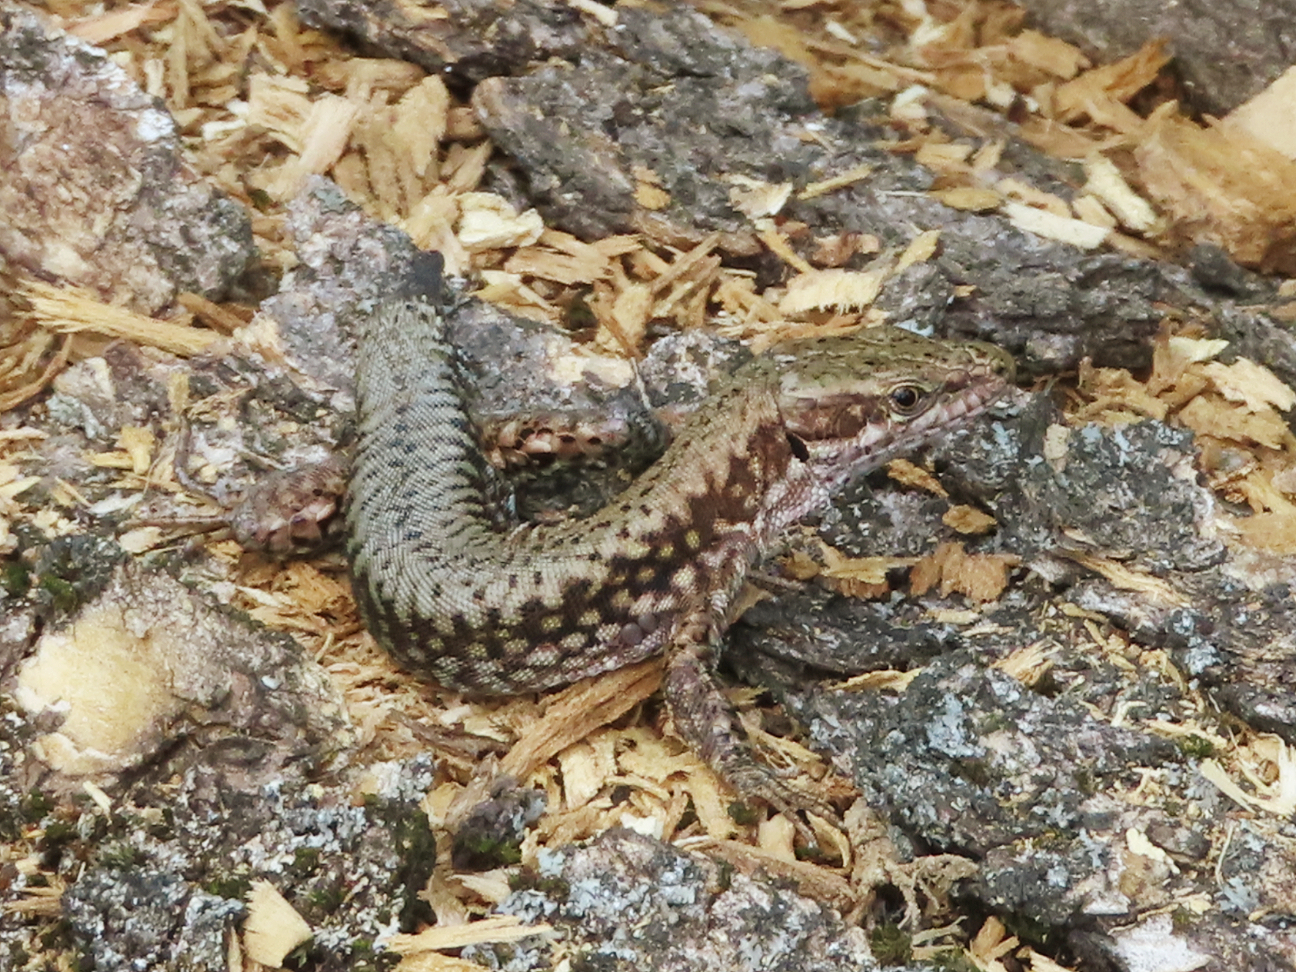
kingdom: Animalia
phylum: Chordata
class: Squamata
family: Lacertidae
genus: Podarcis
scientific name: Podarcis muralis
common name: Common wall lizard
